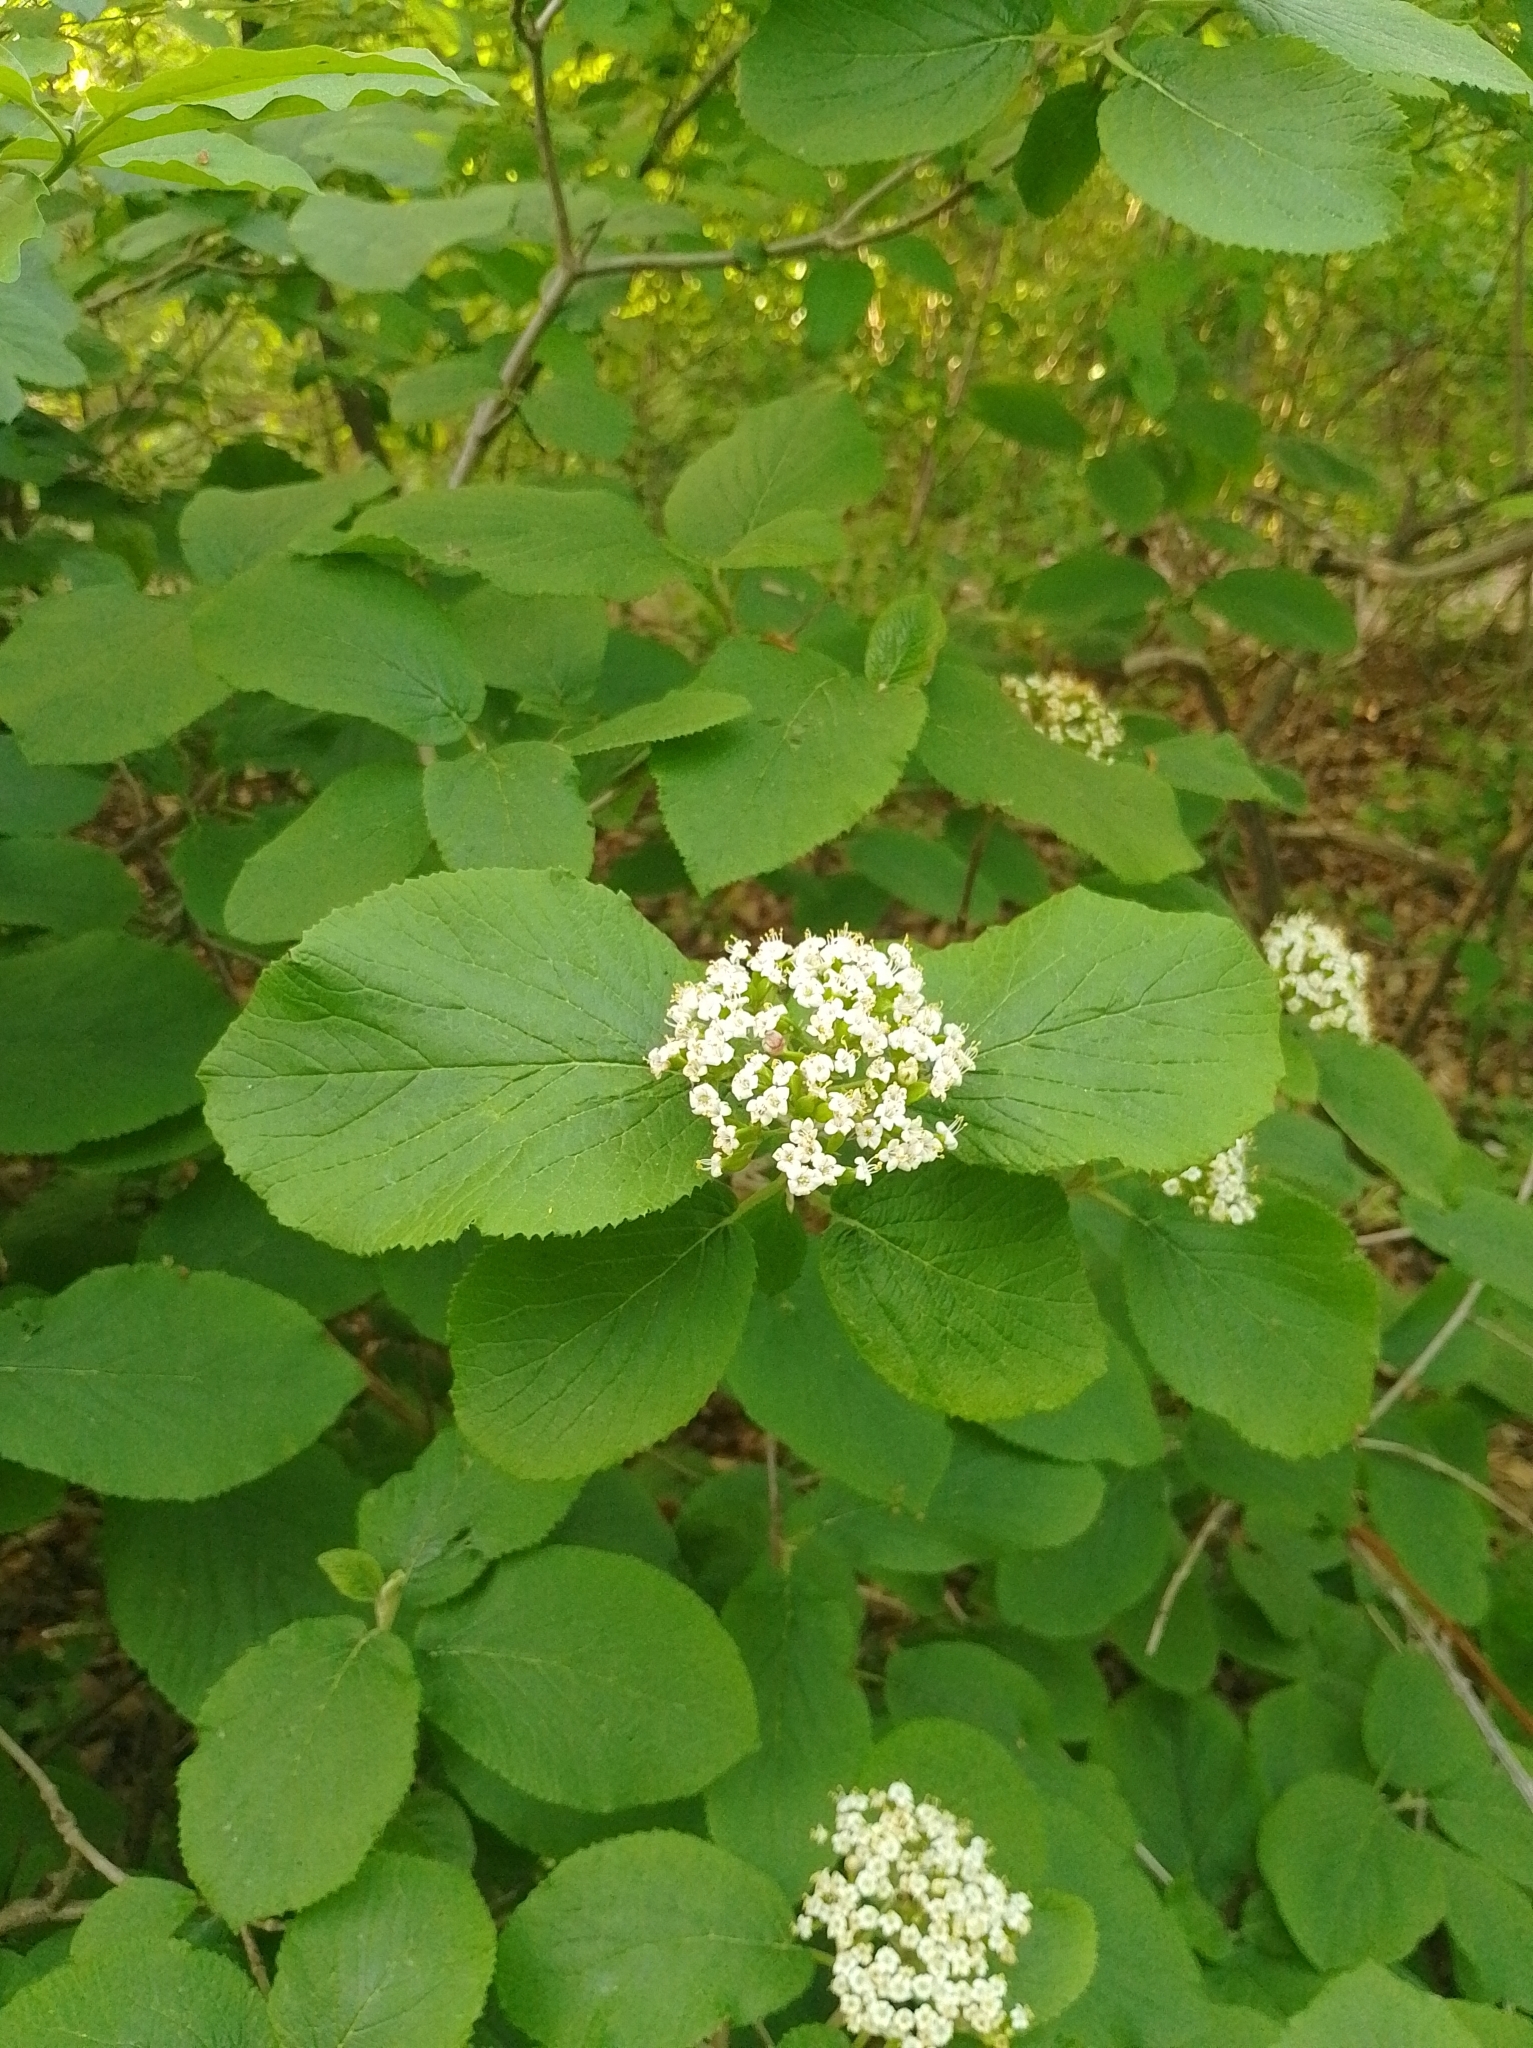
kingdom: Plantae
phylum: Tracheophyta
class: Magnoliopsida
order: Dipsacales
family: Viburnaceae
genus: Viburnum
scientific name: Viburnum lantana
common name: Wayfaring tree
